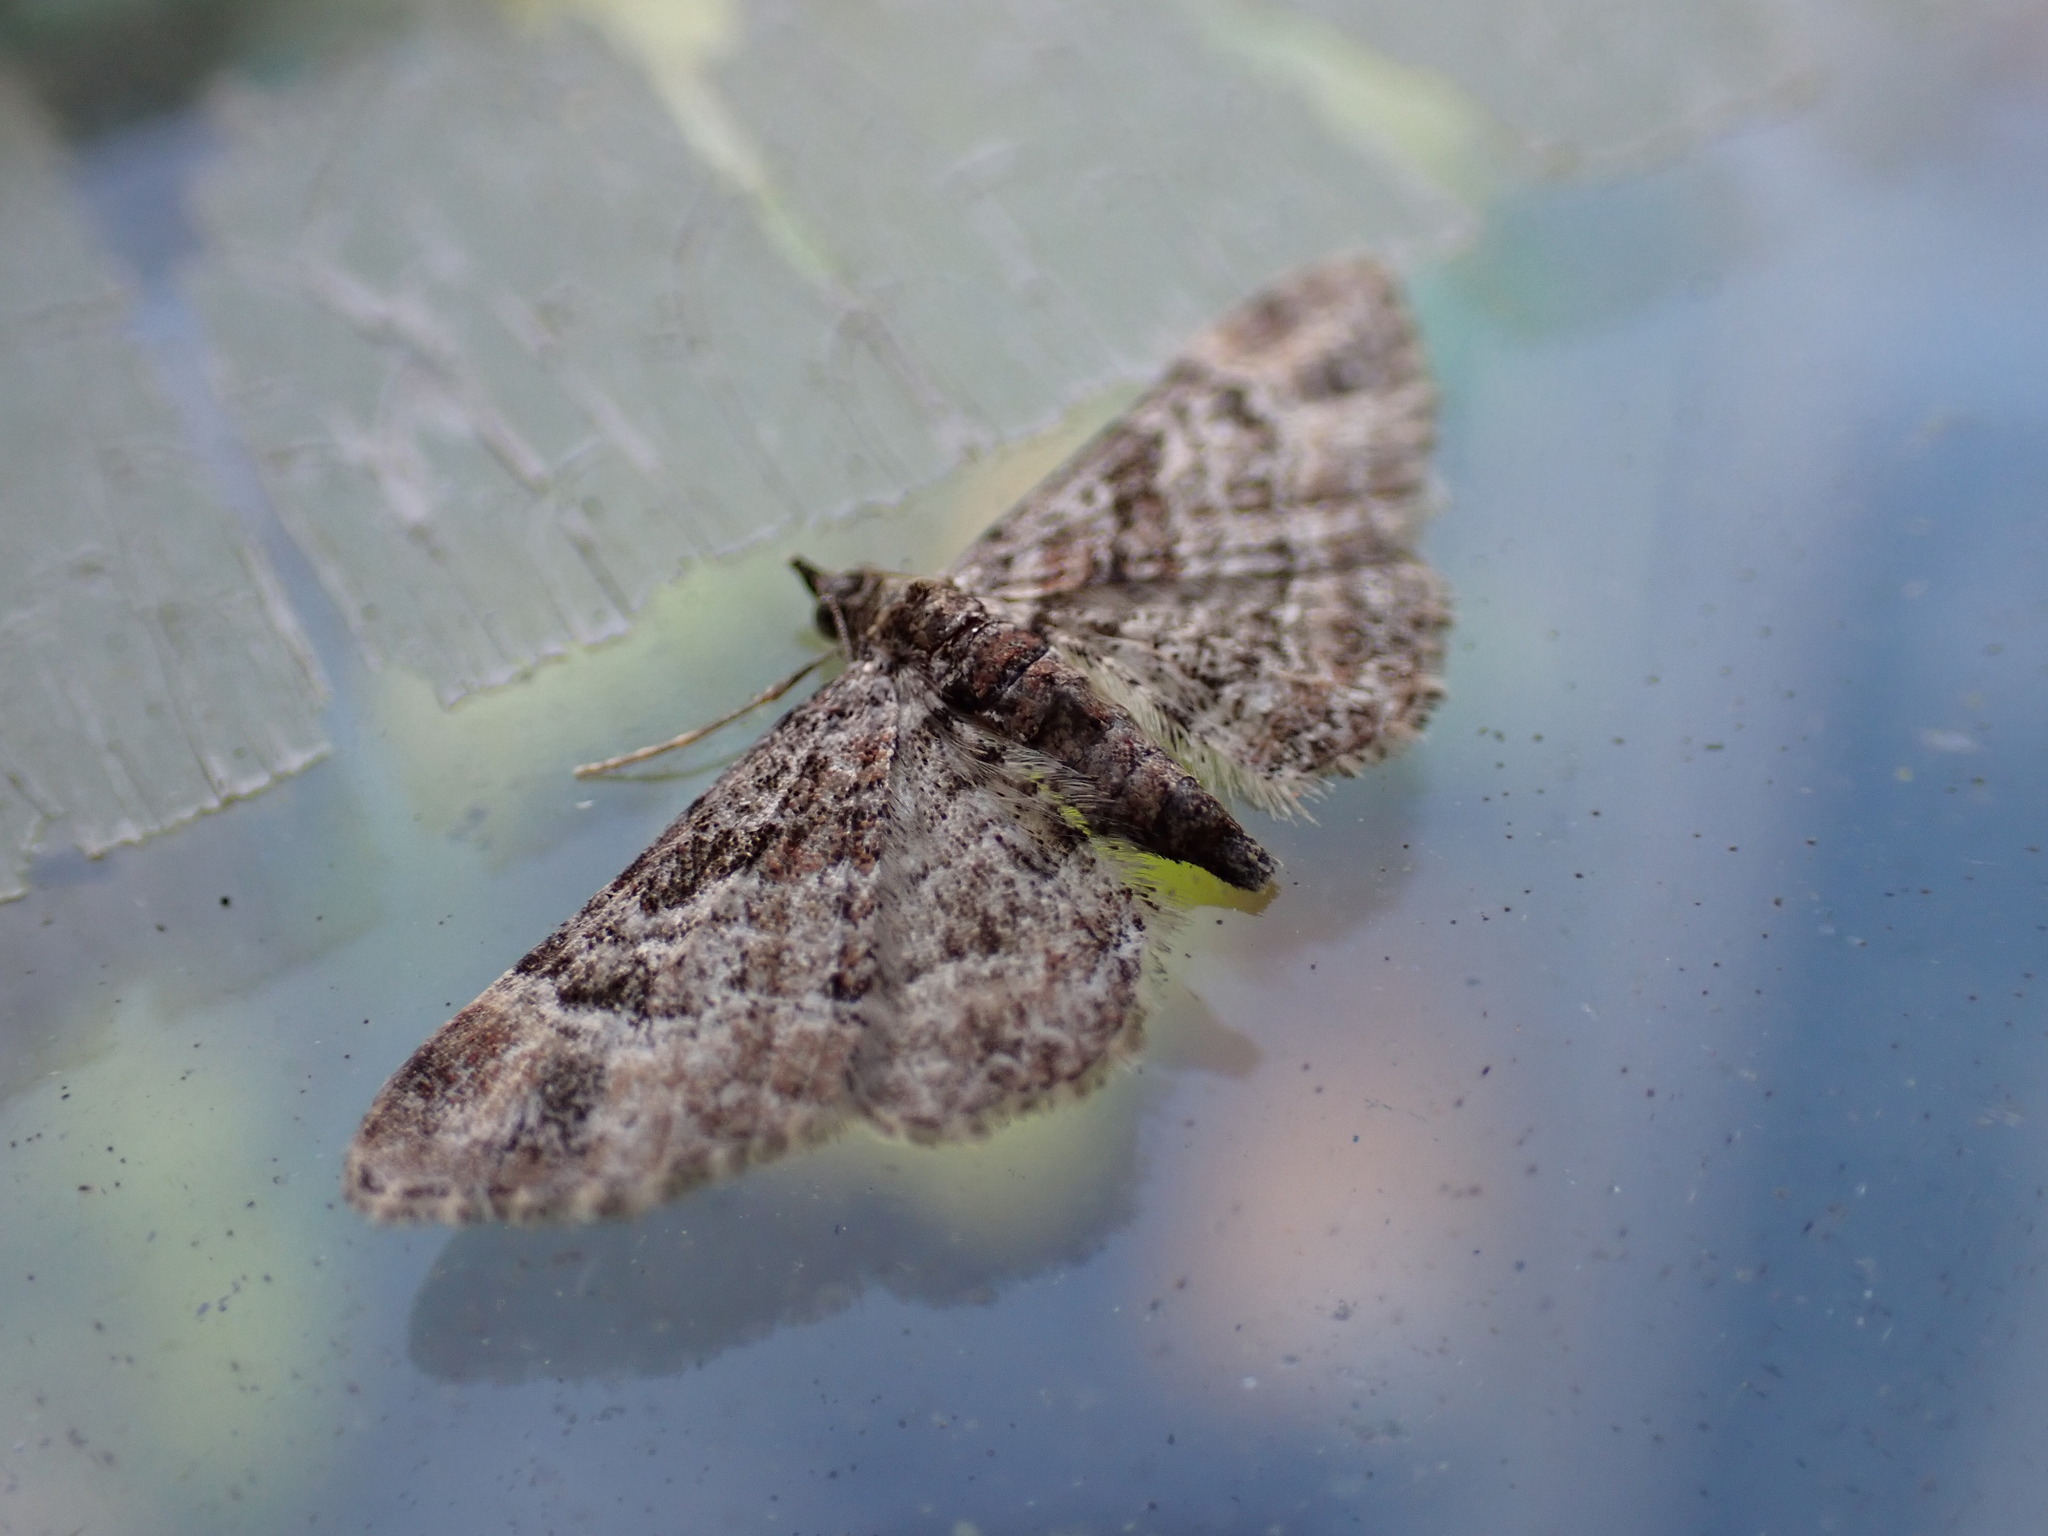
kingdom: Animalia
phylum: Arthropoda
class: Insecta
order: Lepidoptera
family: Geometridae
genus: Gymnoscelis
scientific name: Gymnoscelis rufifasciata
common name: Double-striped pug
